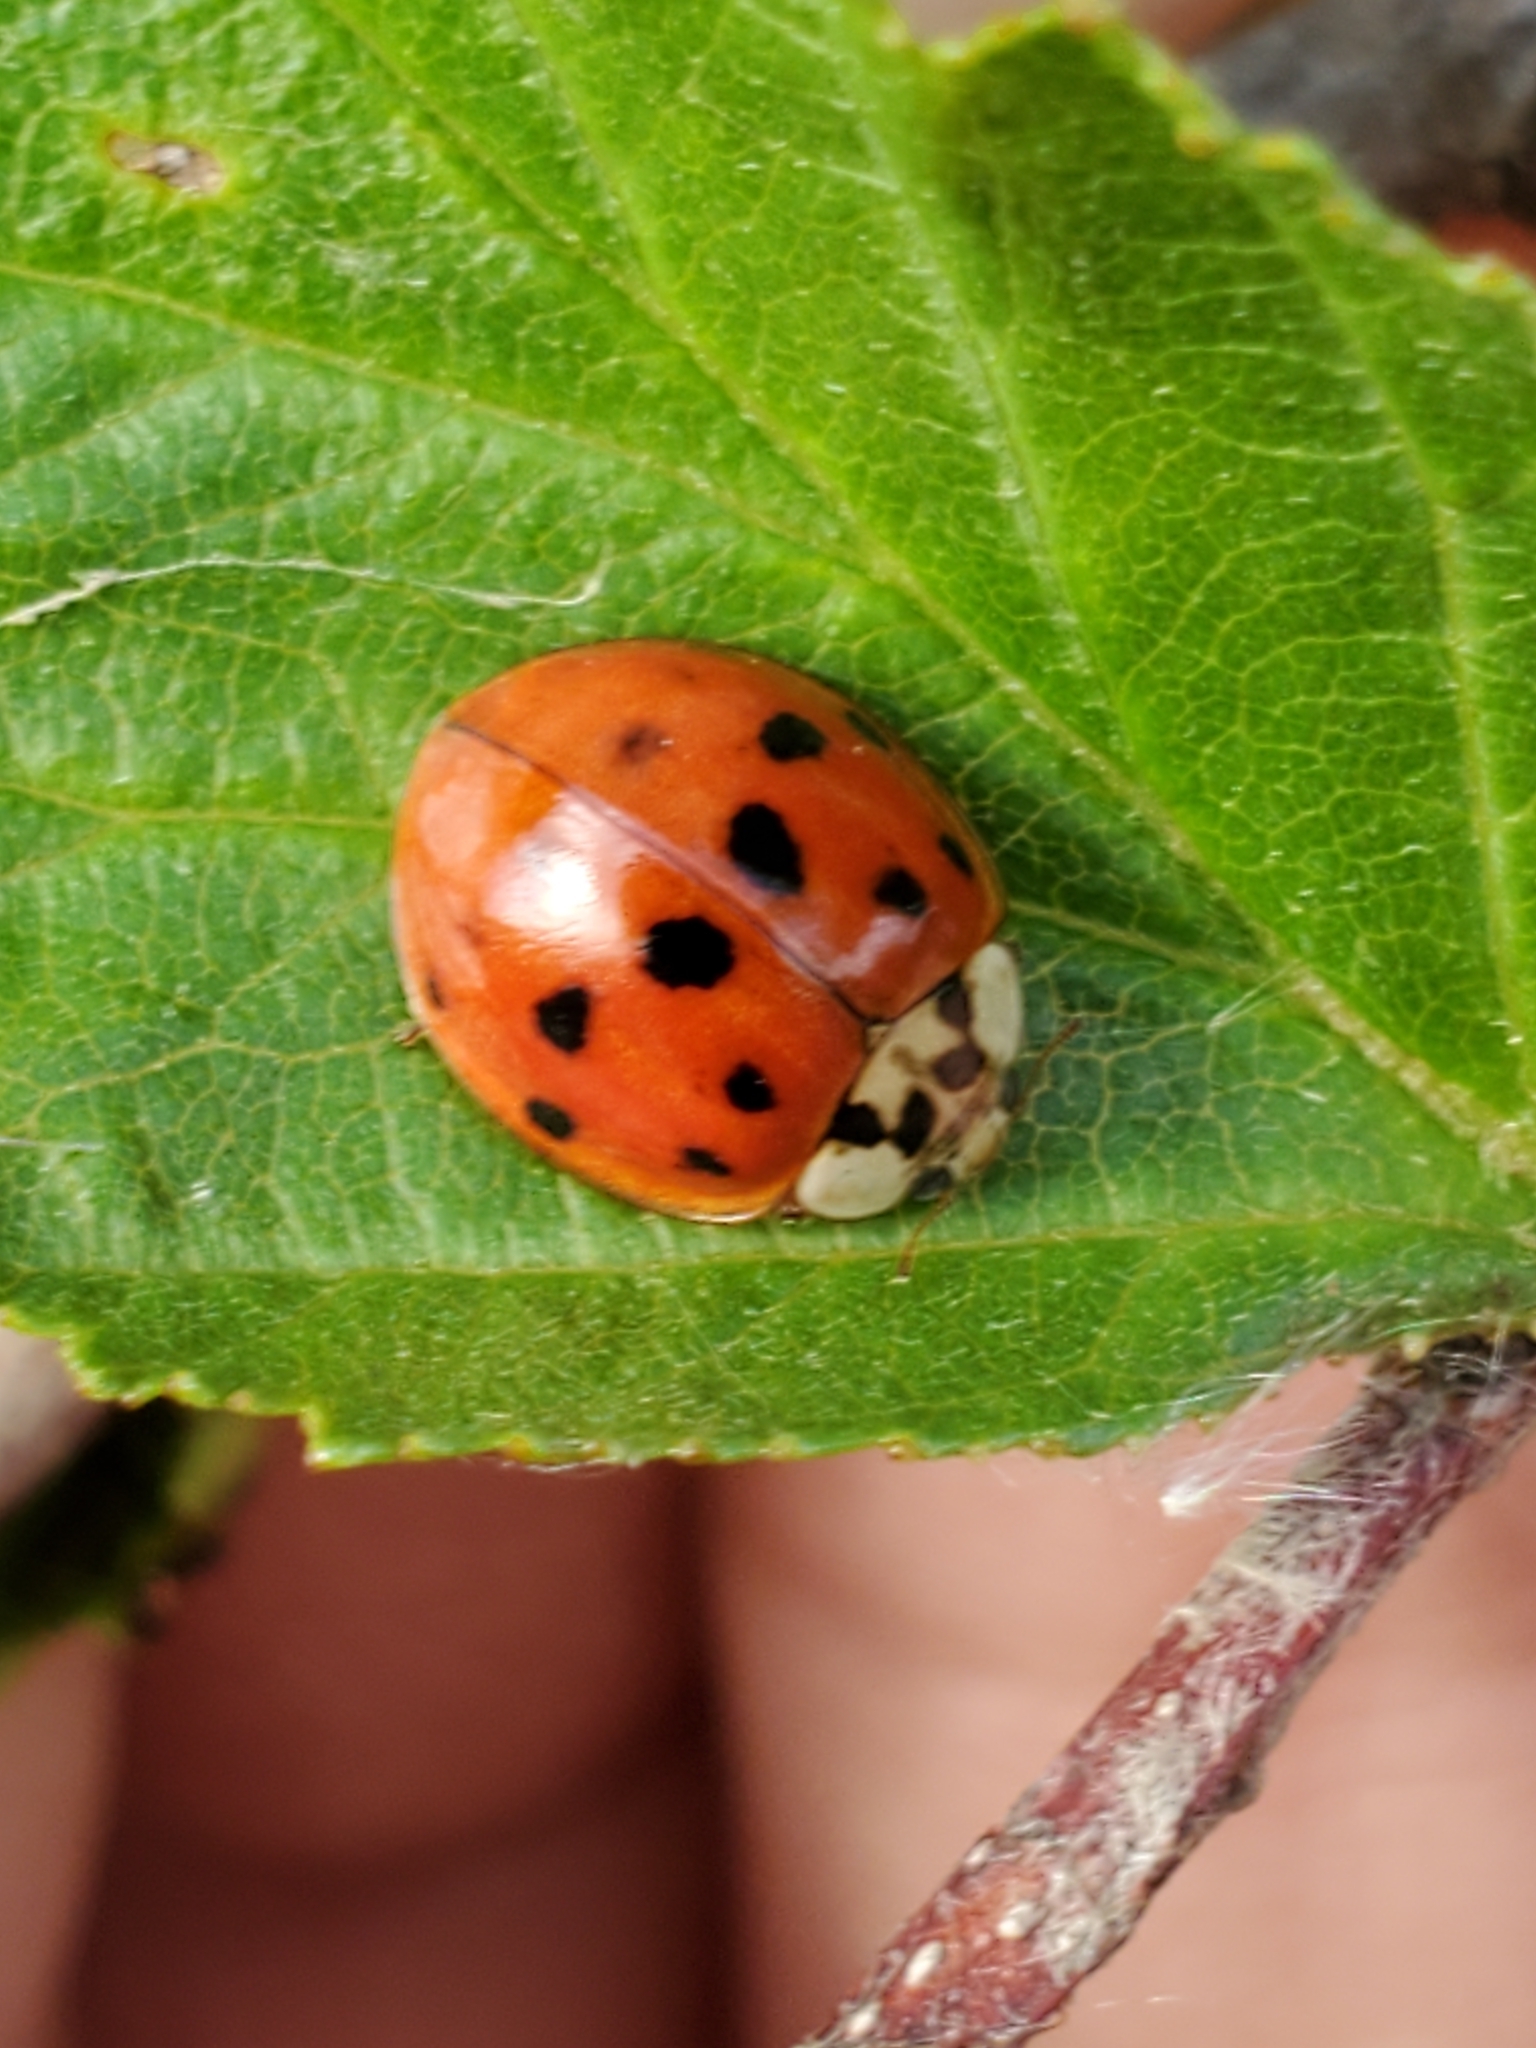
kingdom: Animalia
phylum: Arthropoda
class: Insecta
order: Coleoptera
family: Coccinellidae
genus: Harmonia
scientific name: Harmonia axyridis
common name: Harlequin ladybird
